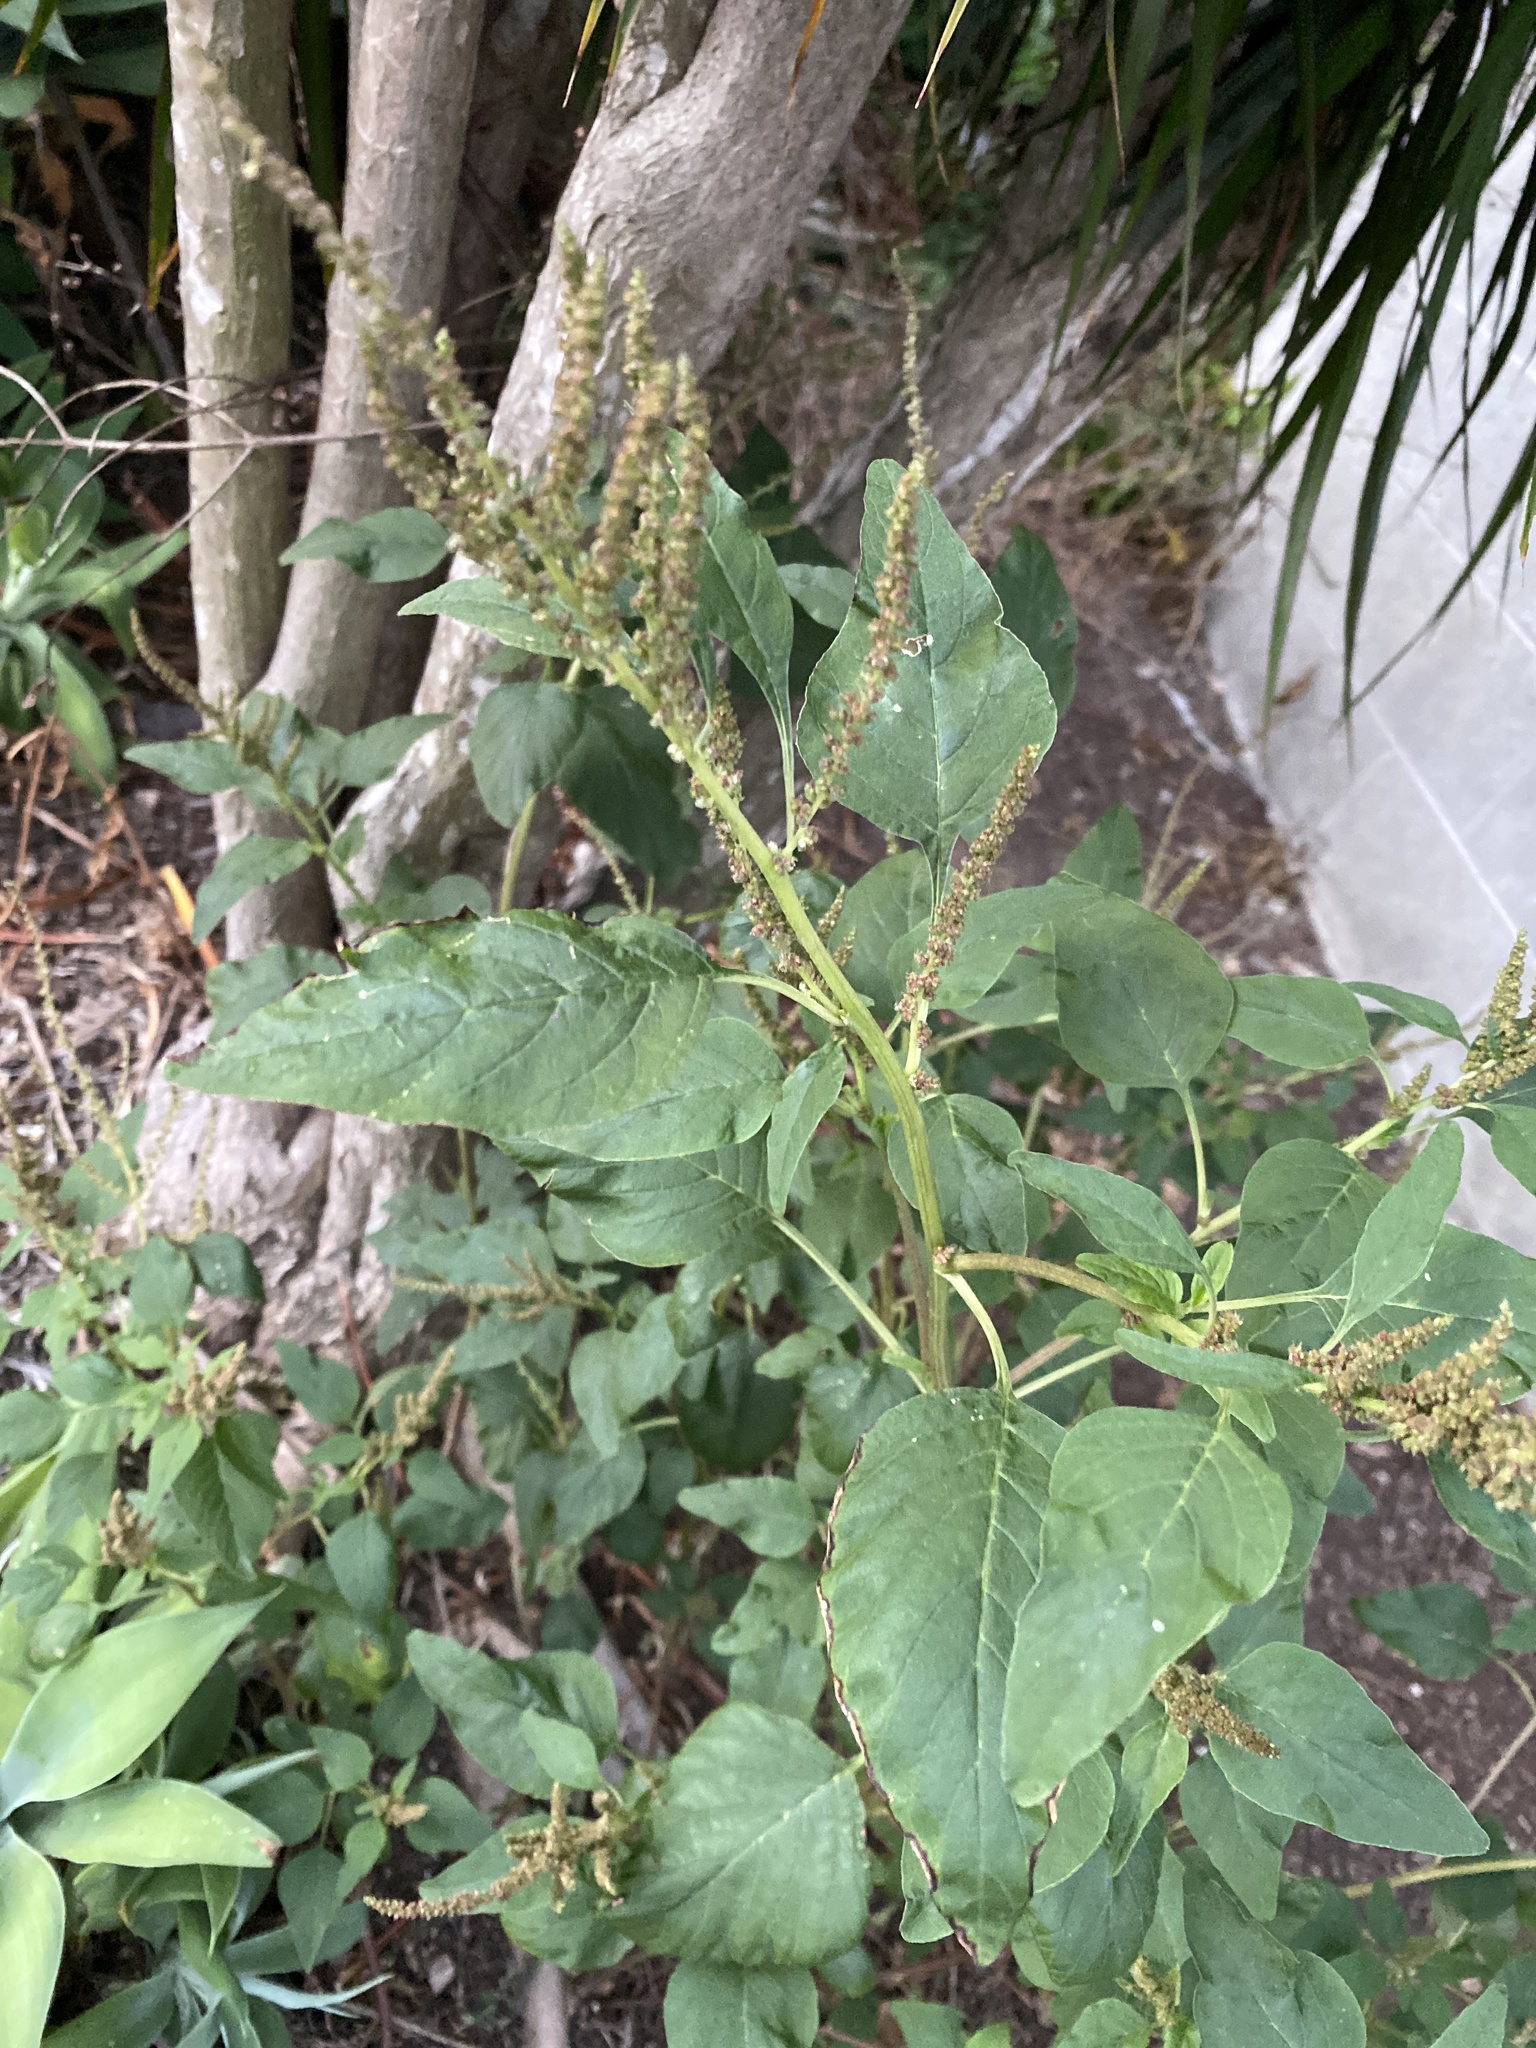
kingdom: Plantae
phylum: Tracheophyta
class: Magnoliopsida
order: Caryophyllales
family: Amaranthaceae
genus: Amaranthus
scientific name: Amaranthus viridis
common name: Slender amaranth
